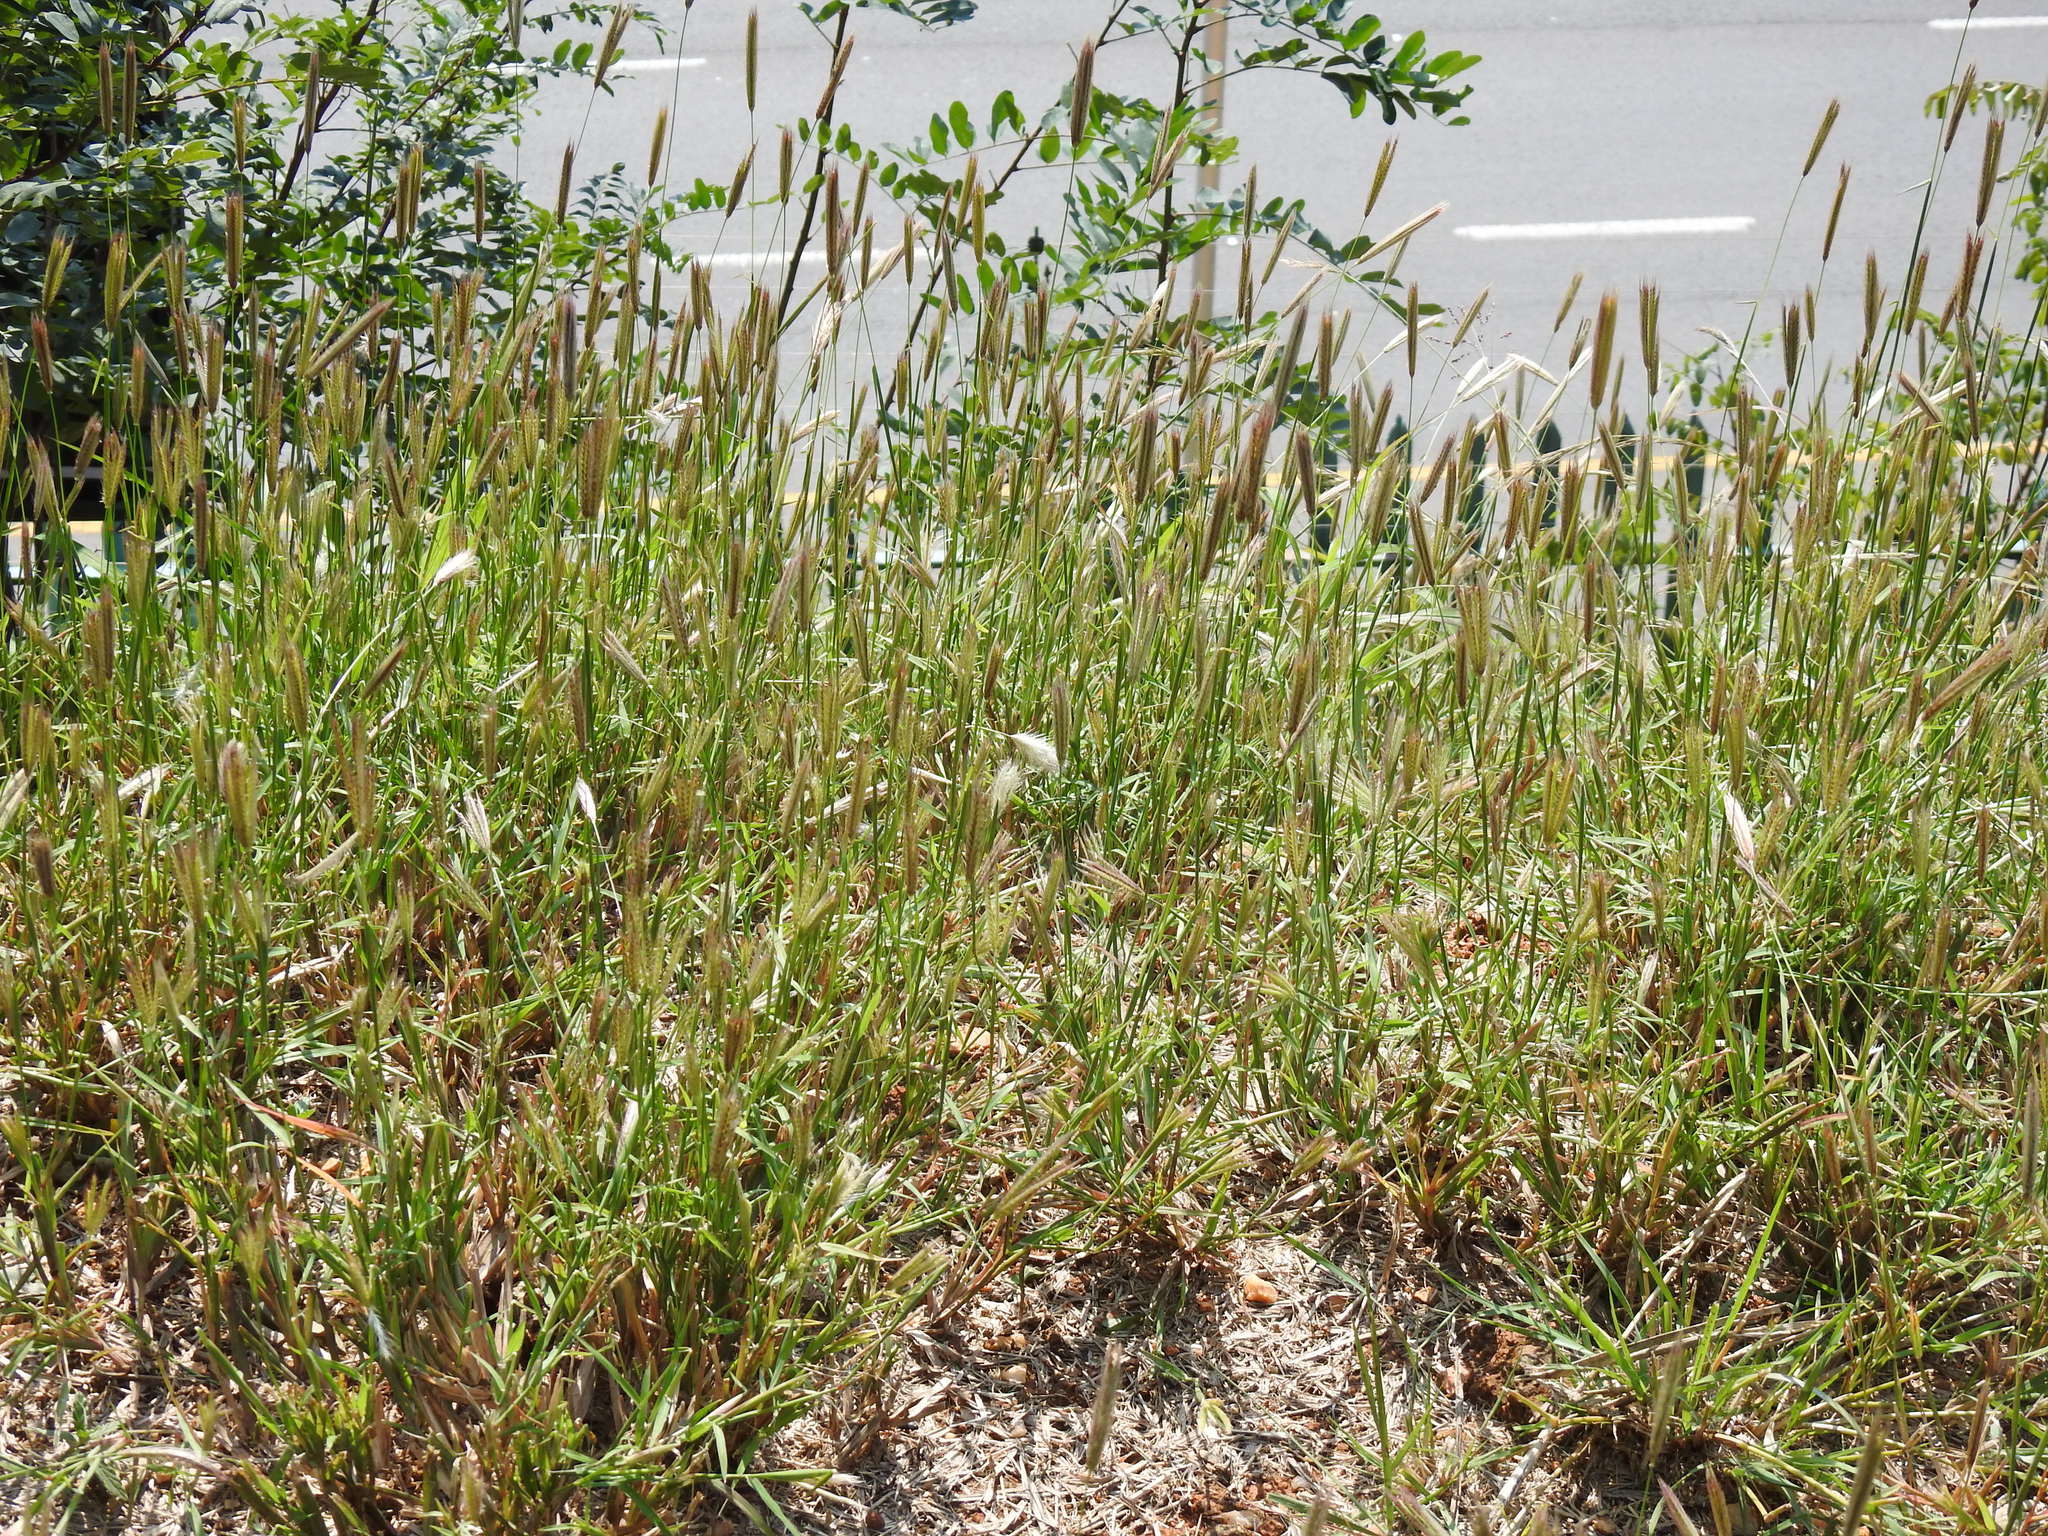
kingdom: Plantae
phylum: Tracheophyta
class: Liliopsida
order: Poales
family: Poaceae
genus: Chloris
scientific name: Chloris virgata
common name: Feathery rhodes-grass
